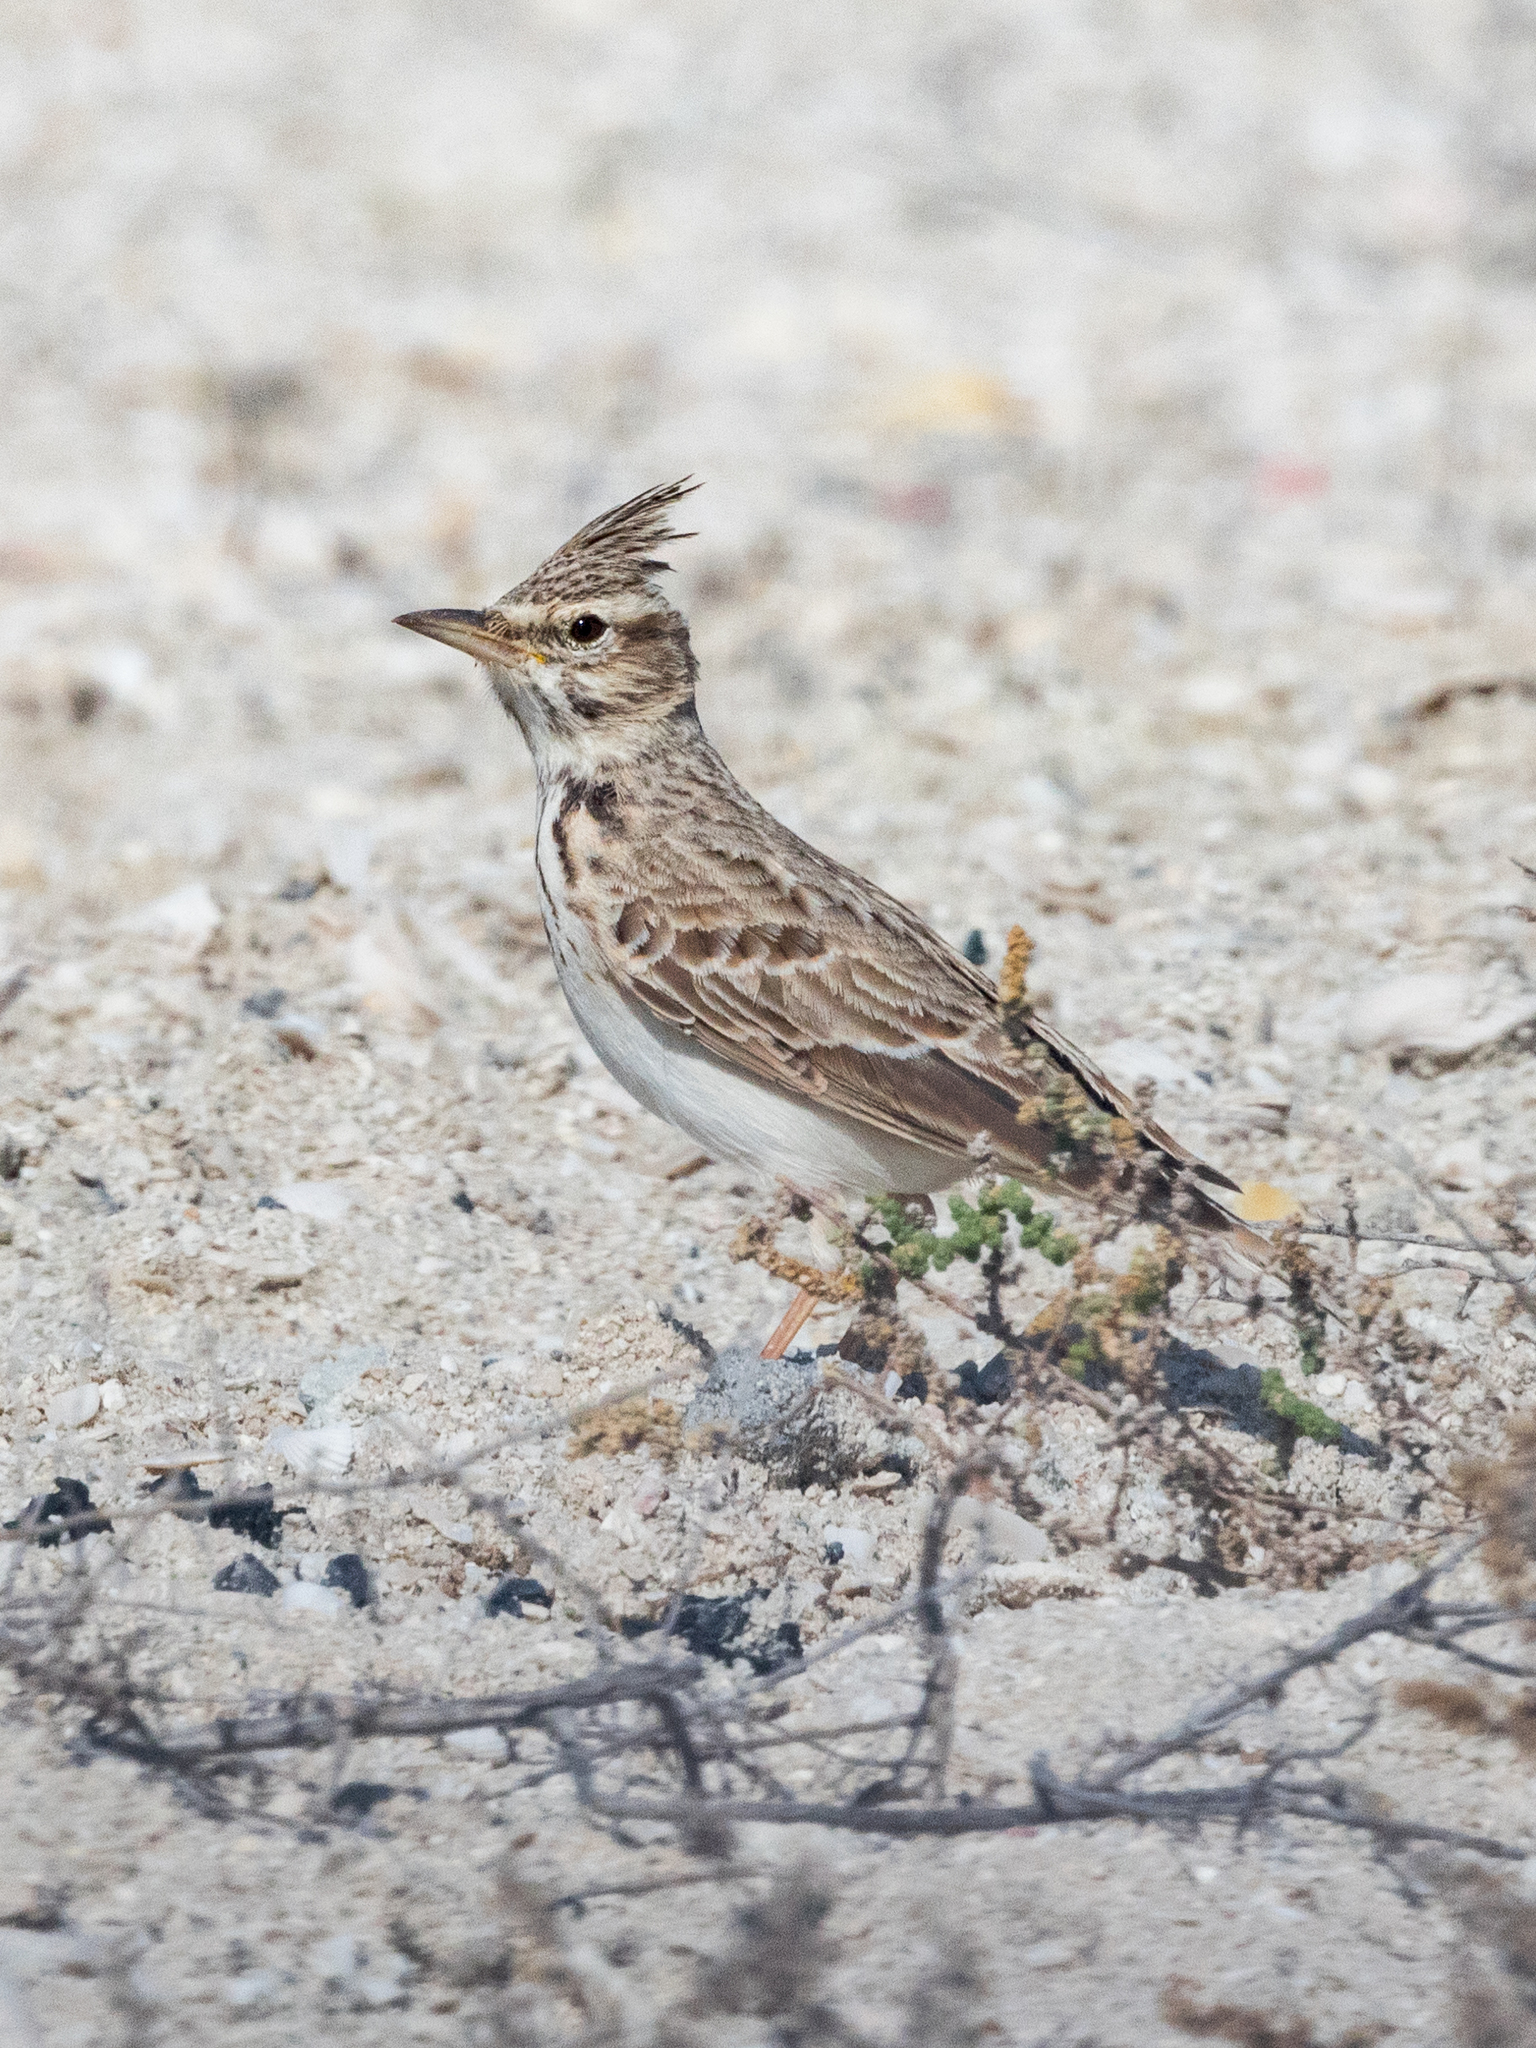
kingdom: Animalia
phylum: Chordata
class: Aves
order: Passeriformes
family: Alaudidae
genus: Galerida
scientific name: Galerida cristata
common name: Crested lark
